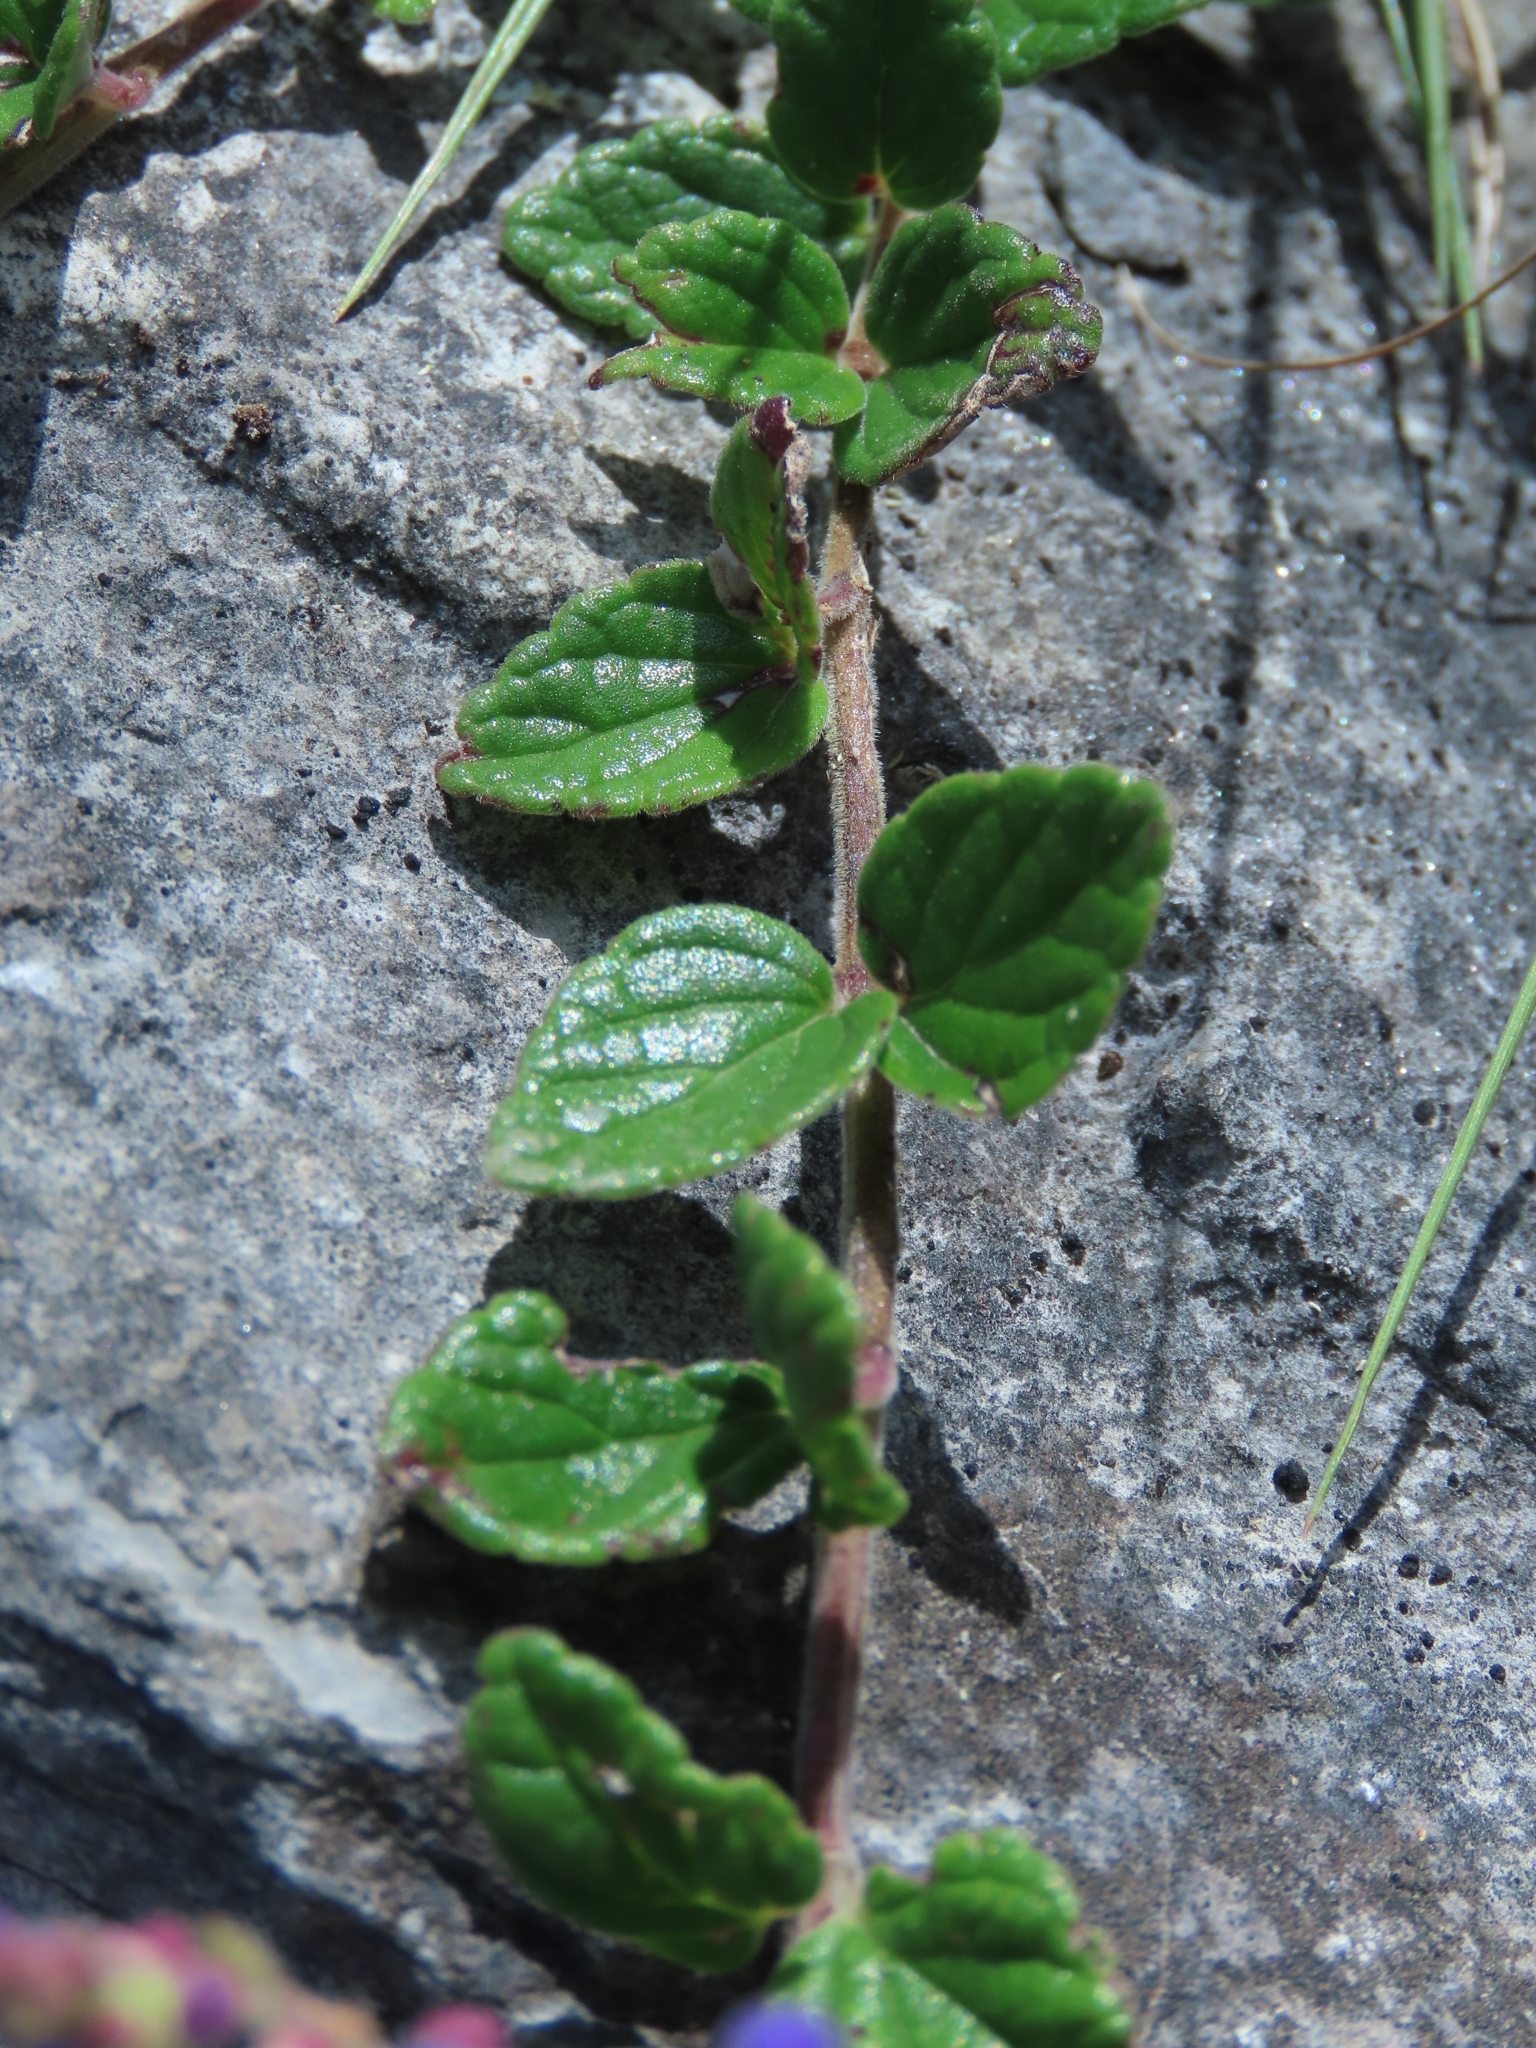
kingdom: Plantae
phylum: Tracheophyta
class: Magnoliopsida
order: Lamiales
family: Lamiaceae
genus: Scutellaria
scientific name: Scutellaria indica
